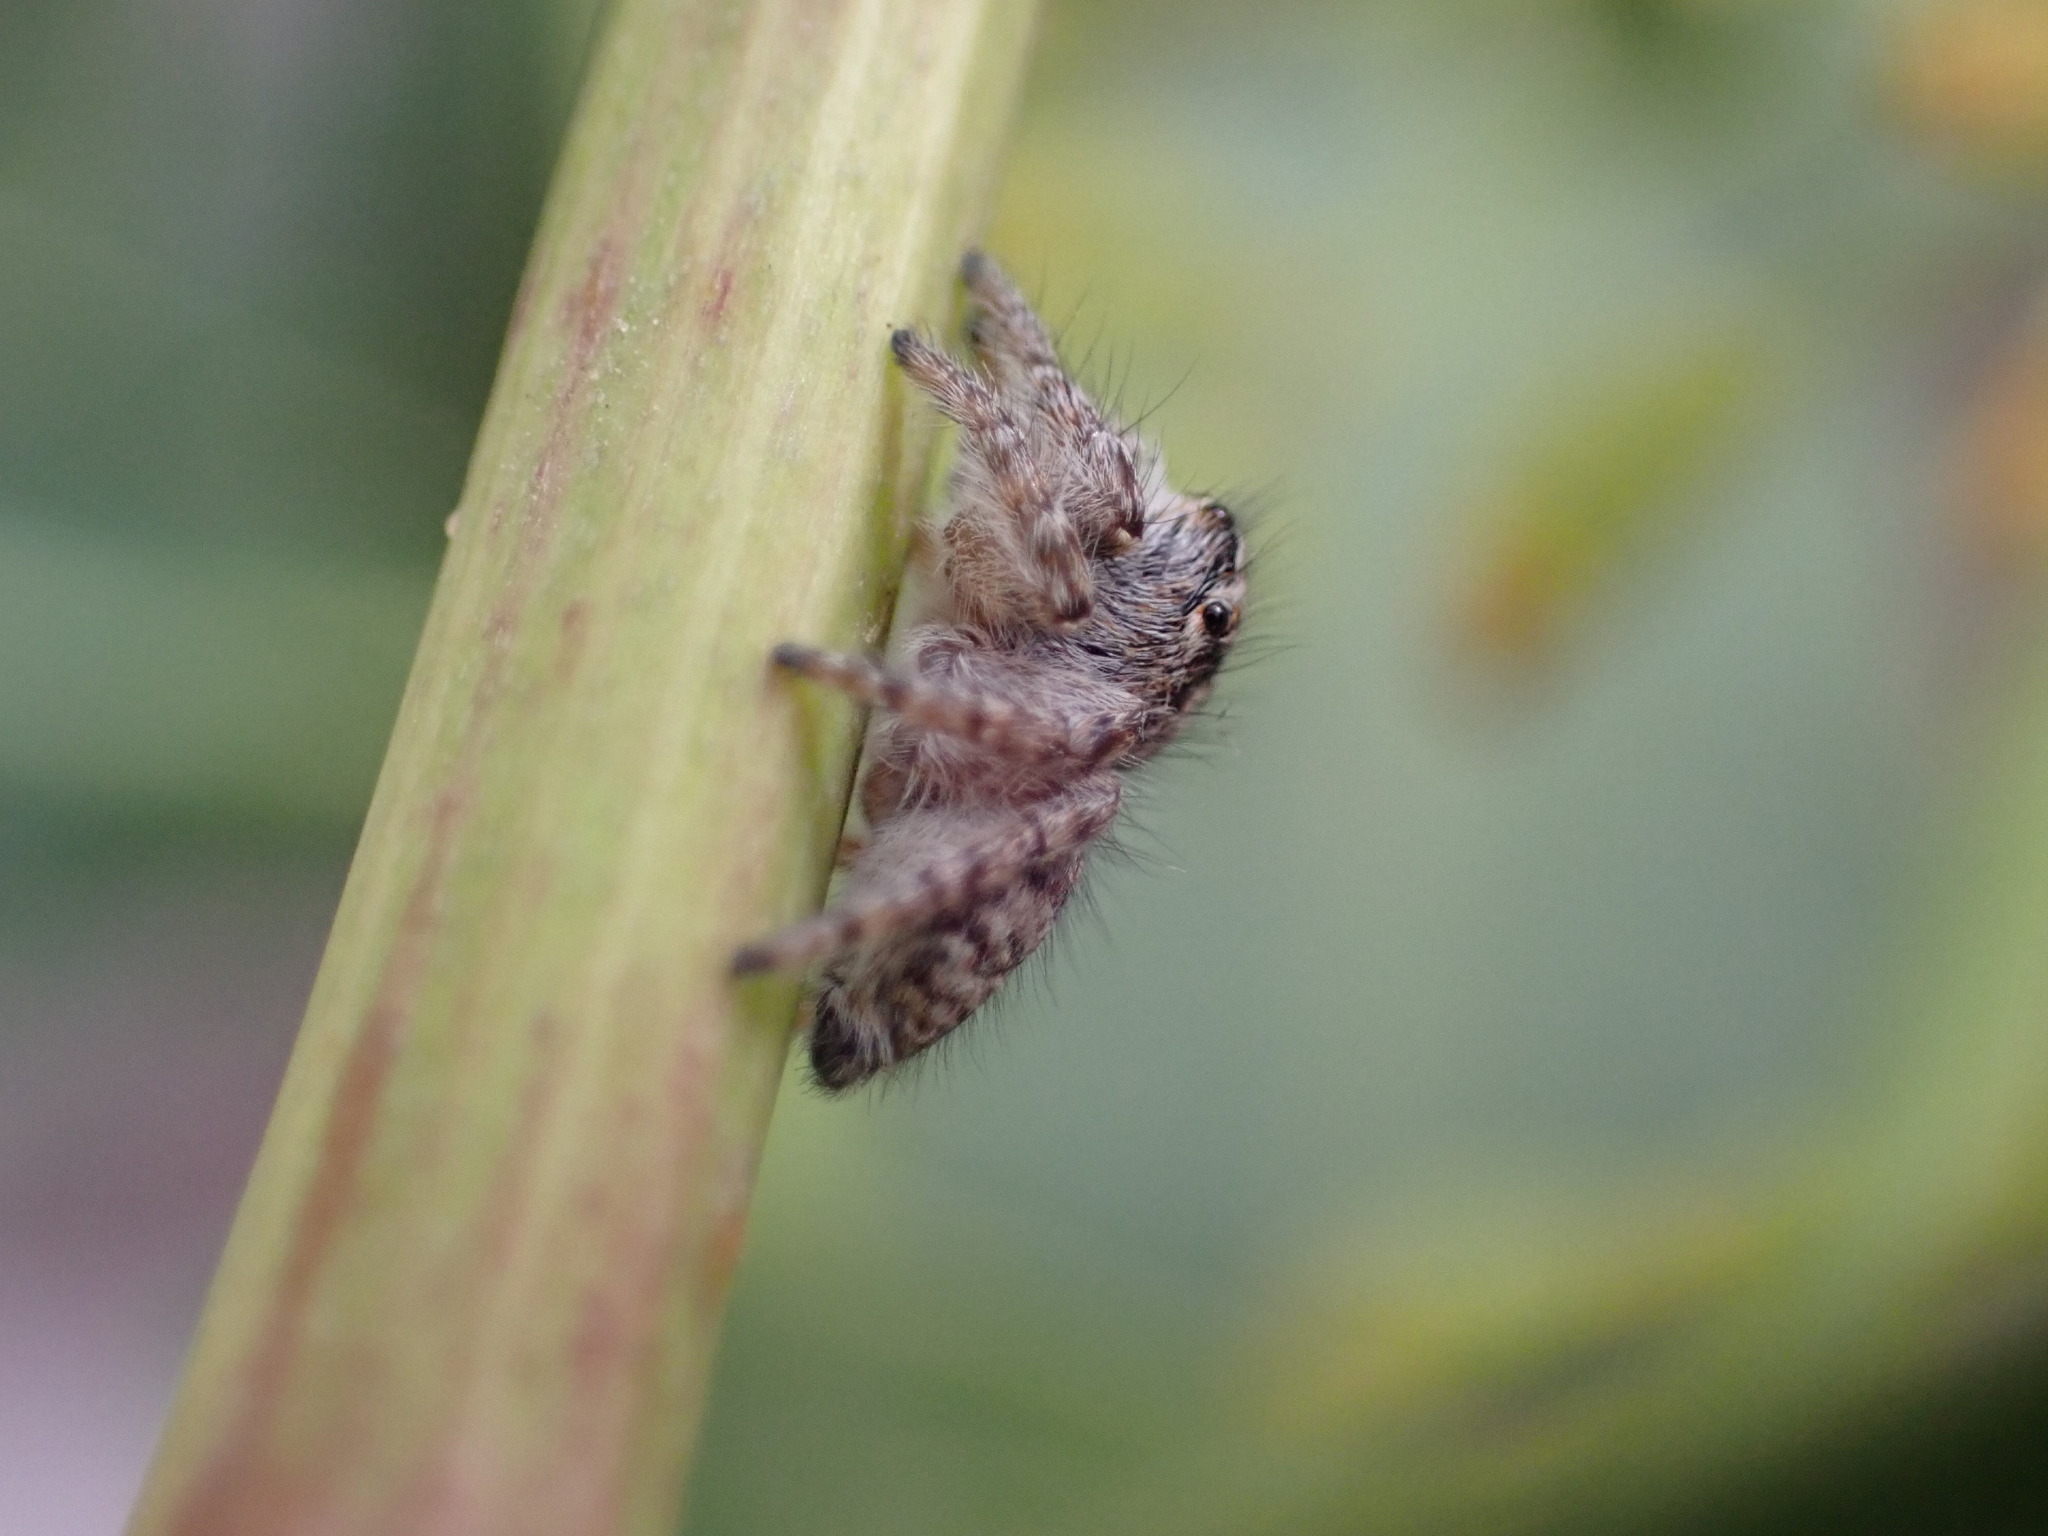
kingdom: Animalia
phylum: Arthropoda
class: Arachnida
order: Araneae
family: Salticidae
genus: Philaeus
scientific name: Philaeus chrysops
